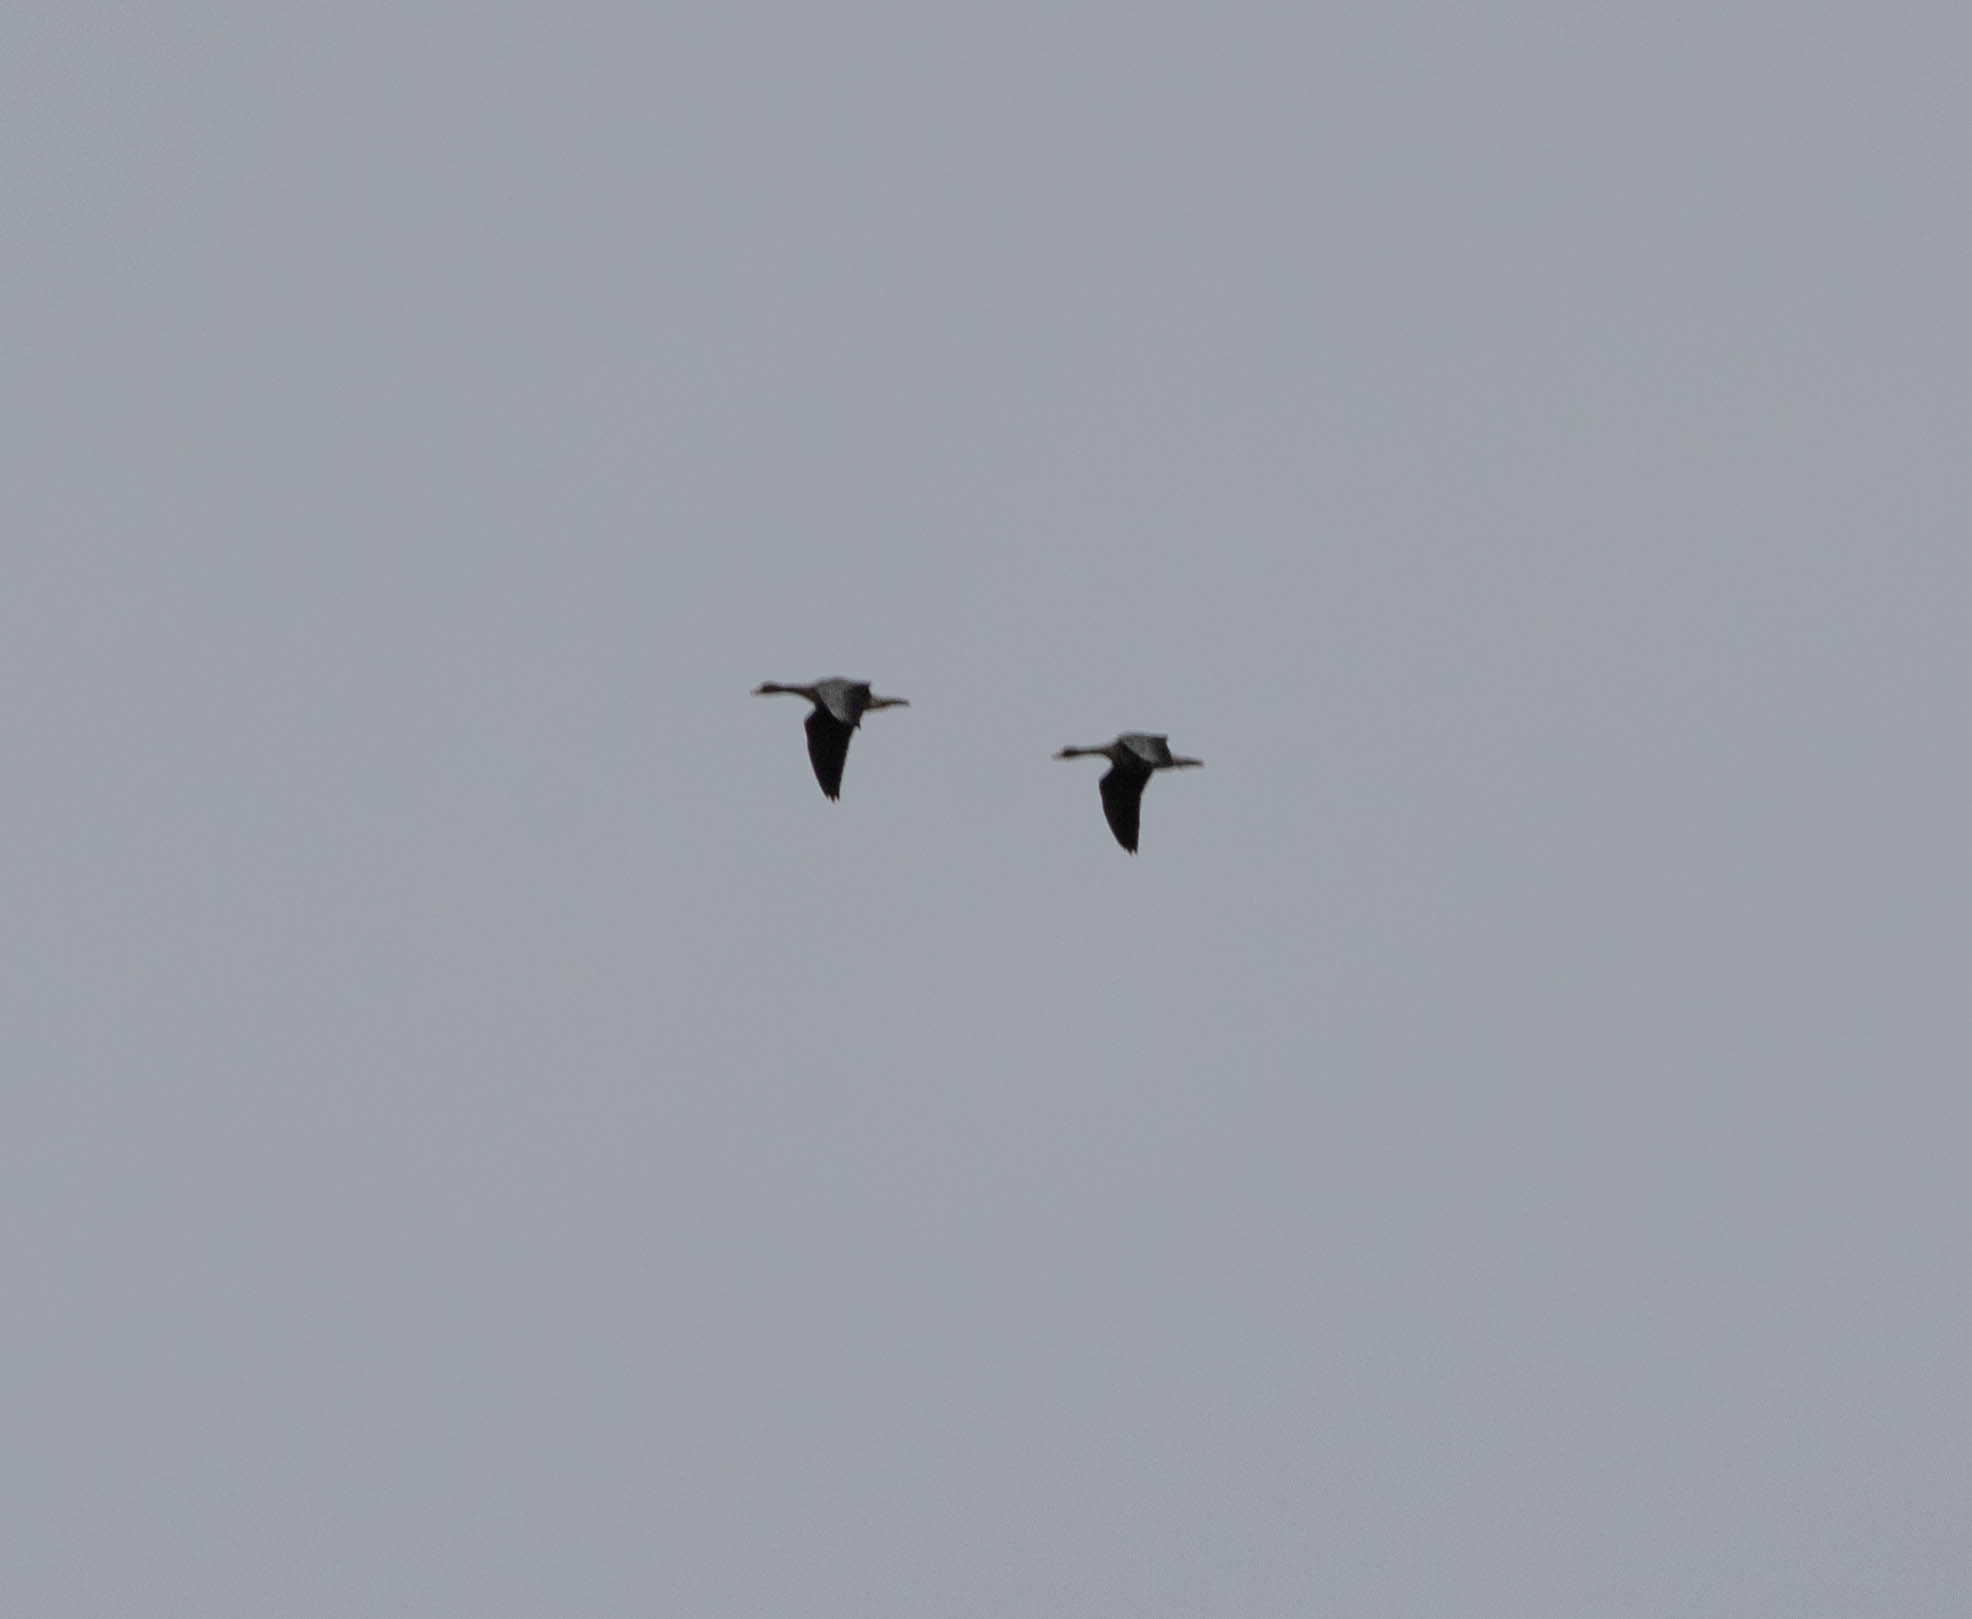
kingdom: Animalia
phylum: Chordata
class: Aves
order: Anseriformes
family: Anatidae
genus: Anser
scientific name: Anser albifrons
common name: Greater white-fronted goose
